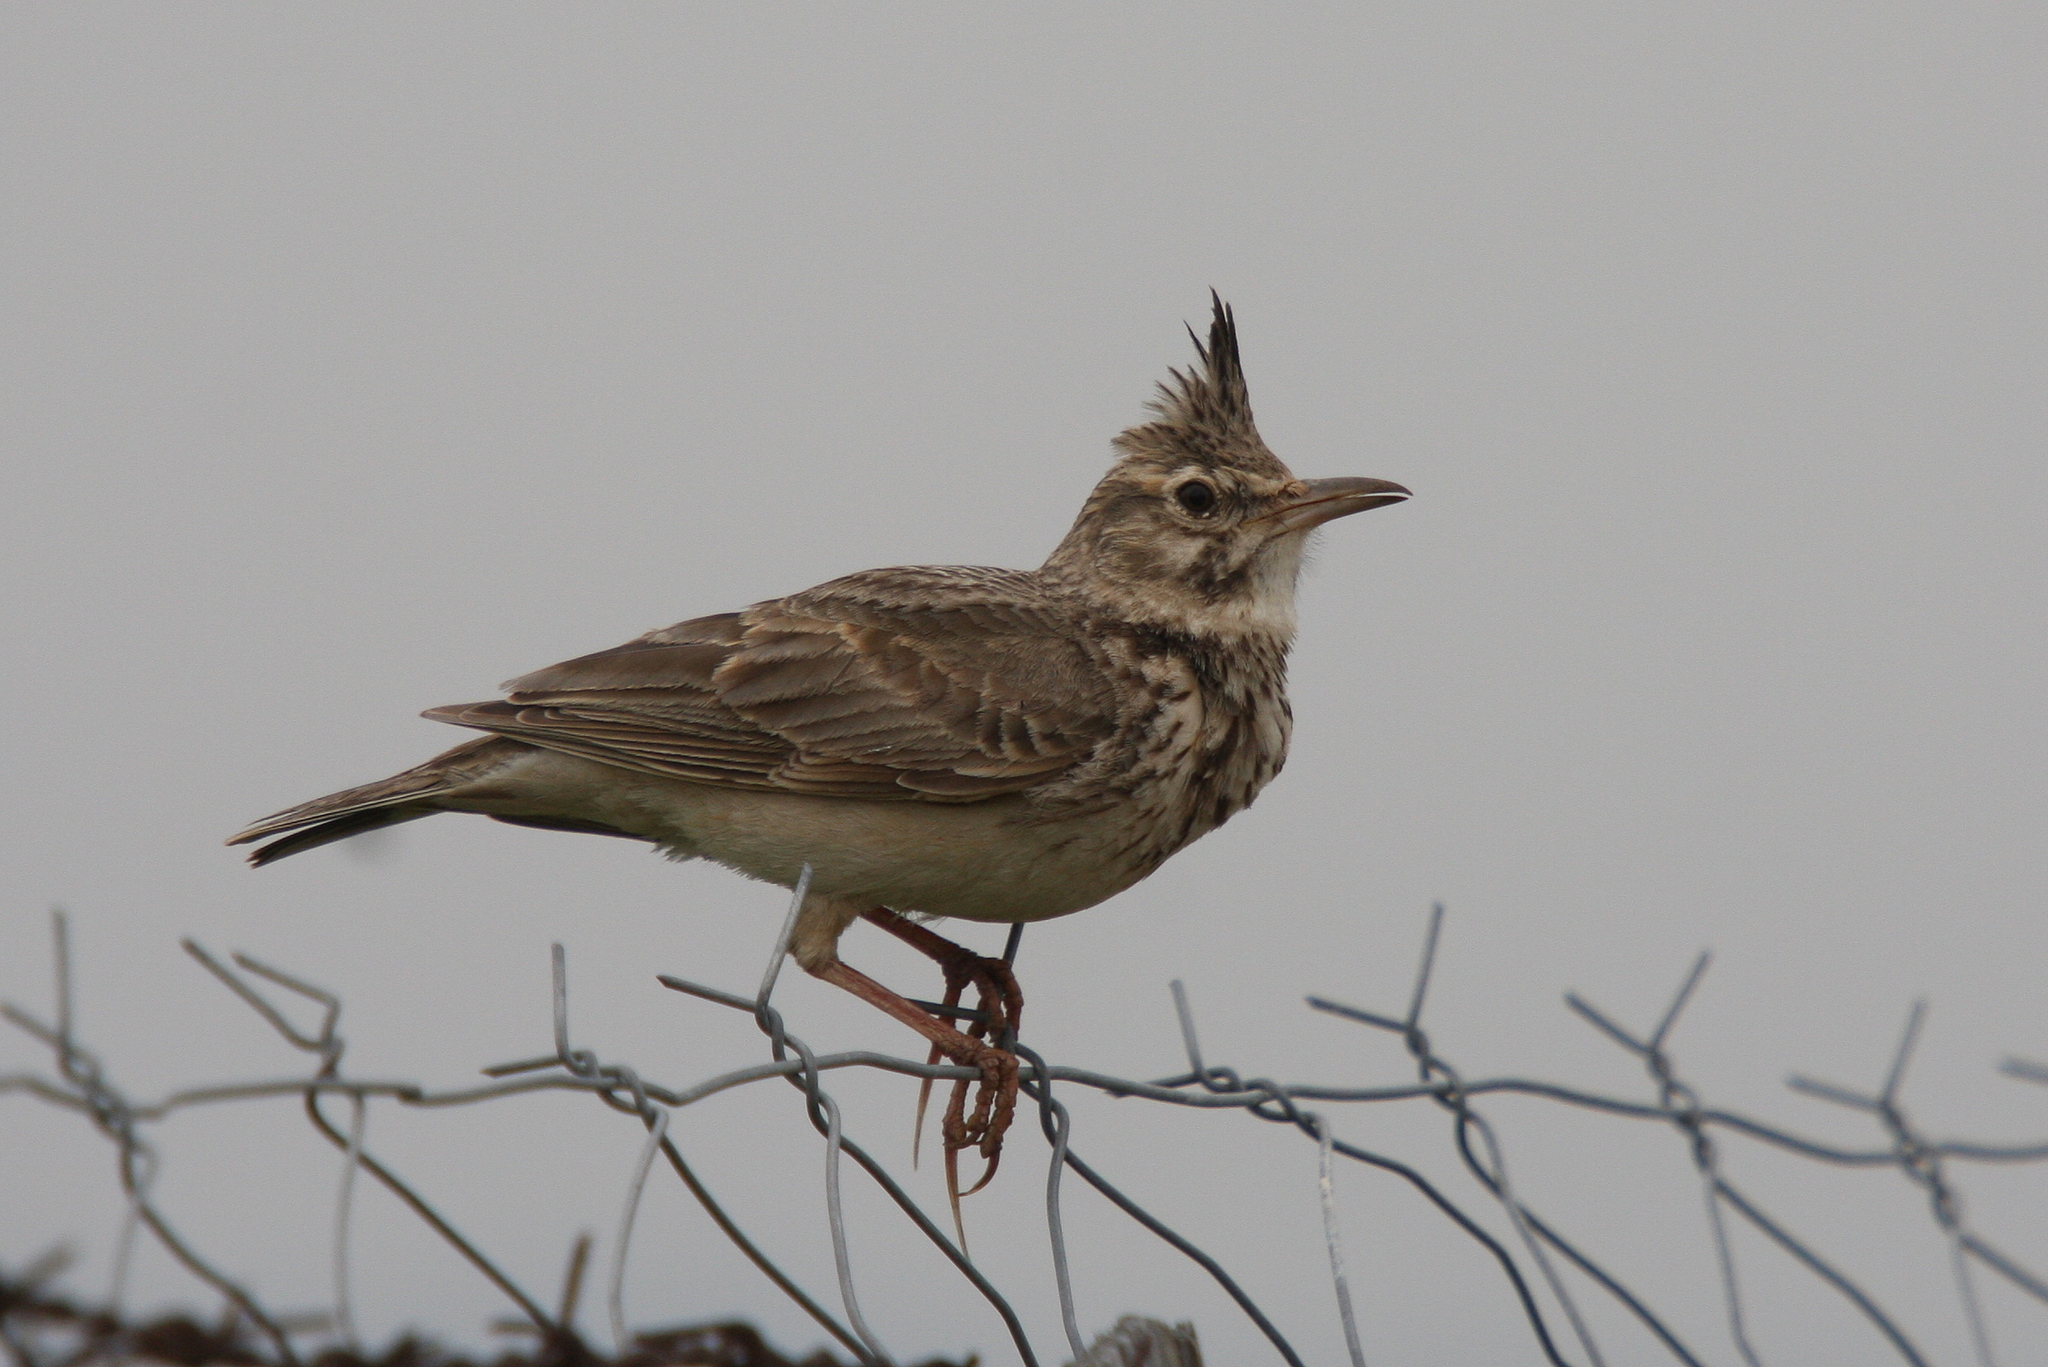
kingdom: Animalia
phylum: Chordata
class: Aves
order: Passeriformes
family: Alaudidae
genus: Galerida
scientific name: Galerida cristata
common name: Crested lark
